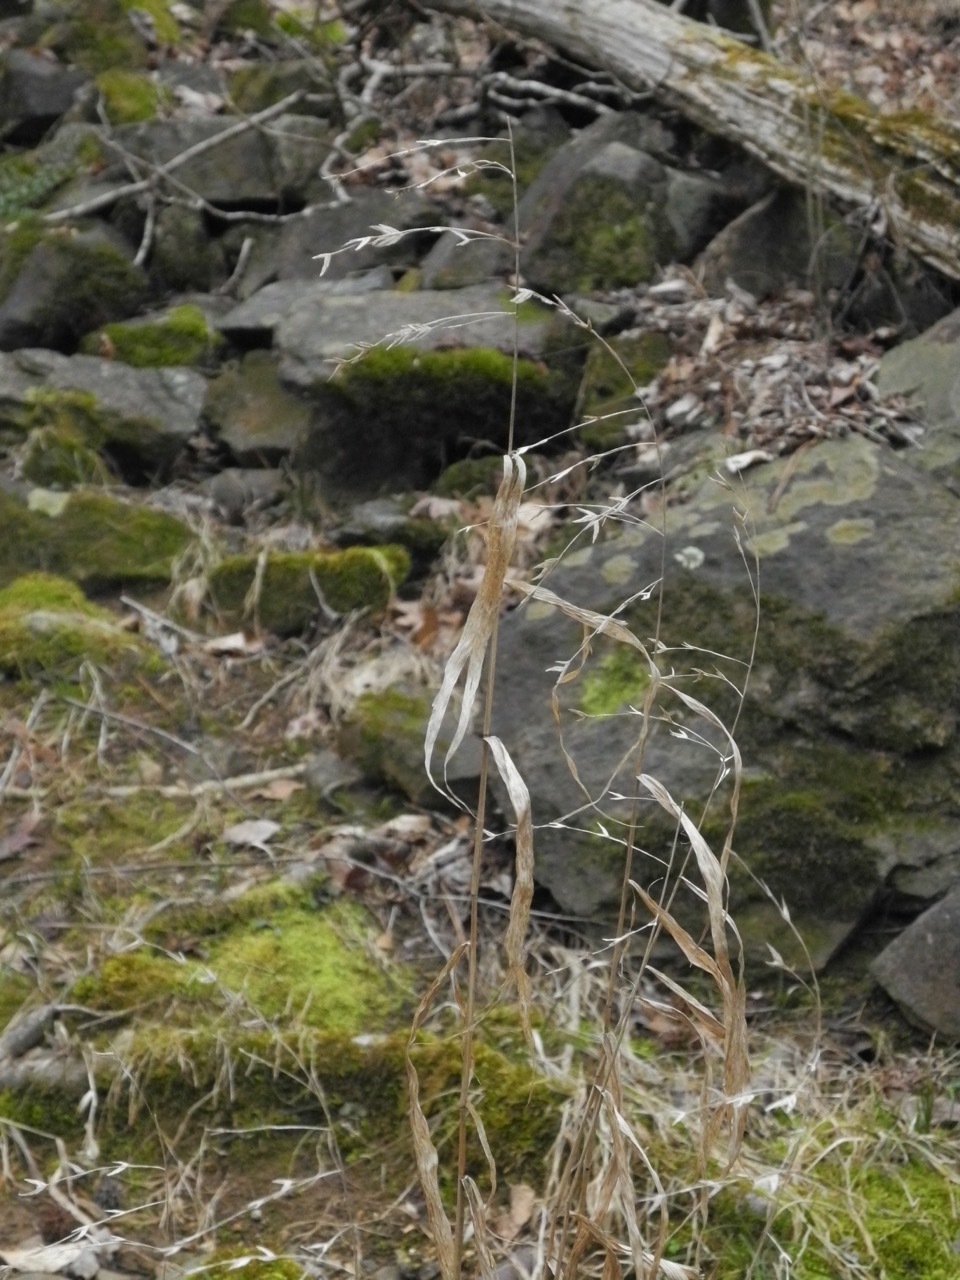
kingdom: Plantae
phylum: Tracheophyta
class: Liliopsida
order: Poales
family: Poaceae
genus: Chasmanthium
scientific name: Chasmanthium latifolium
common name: Broad-leaved chasmanthium
